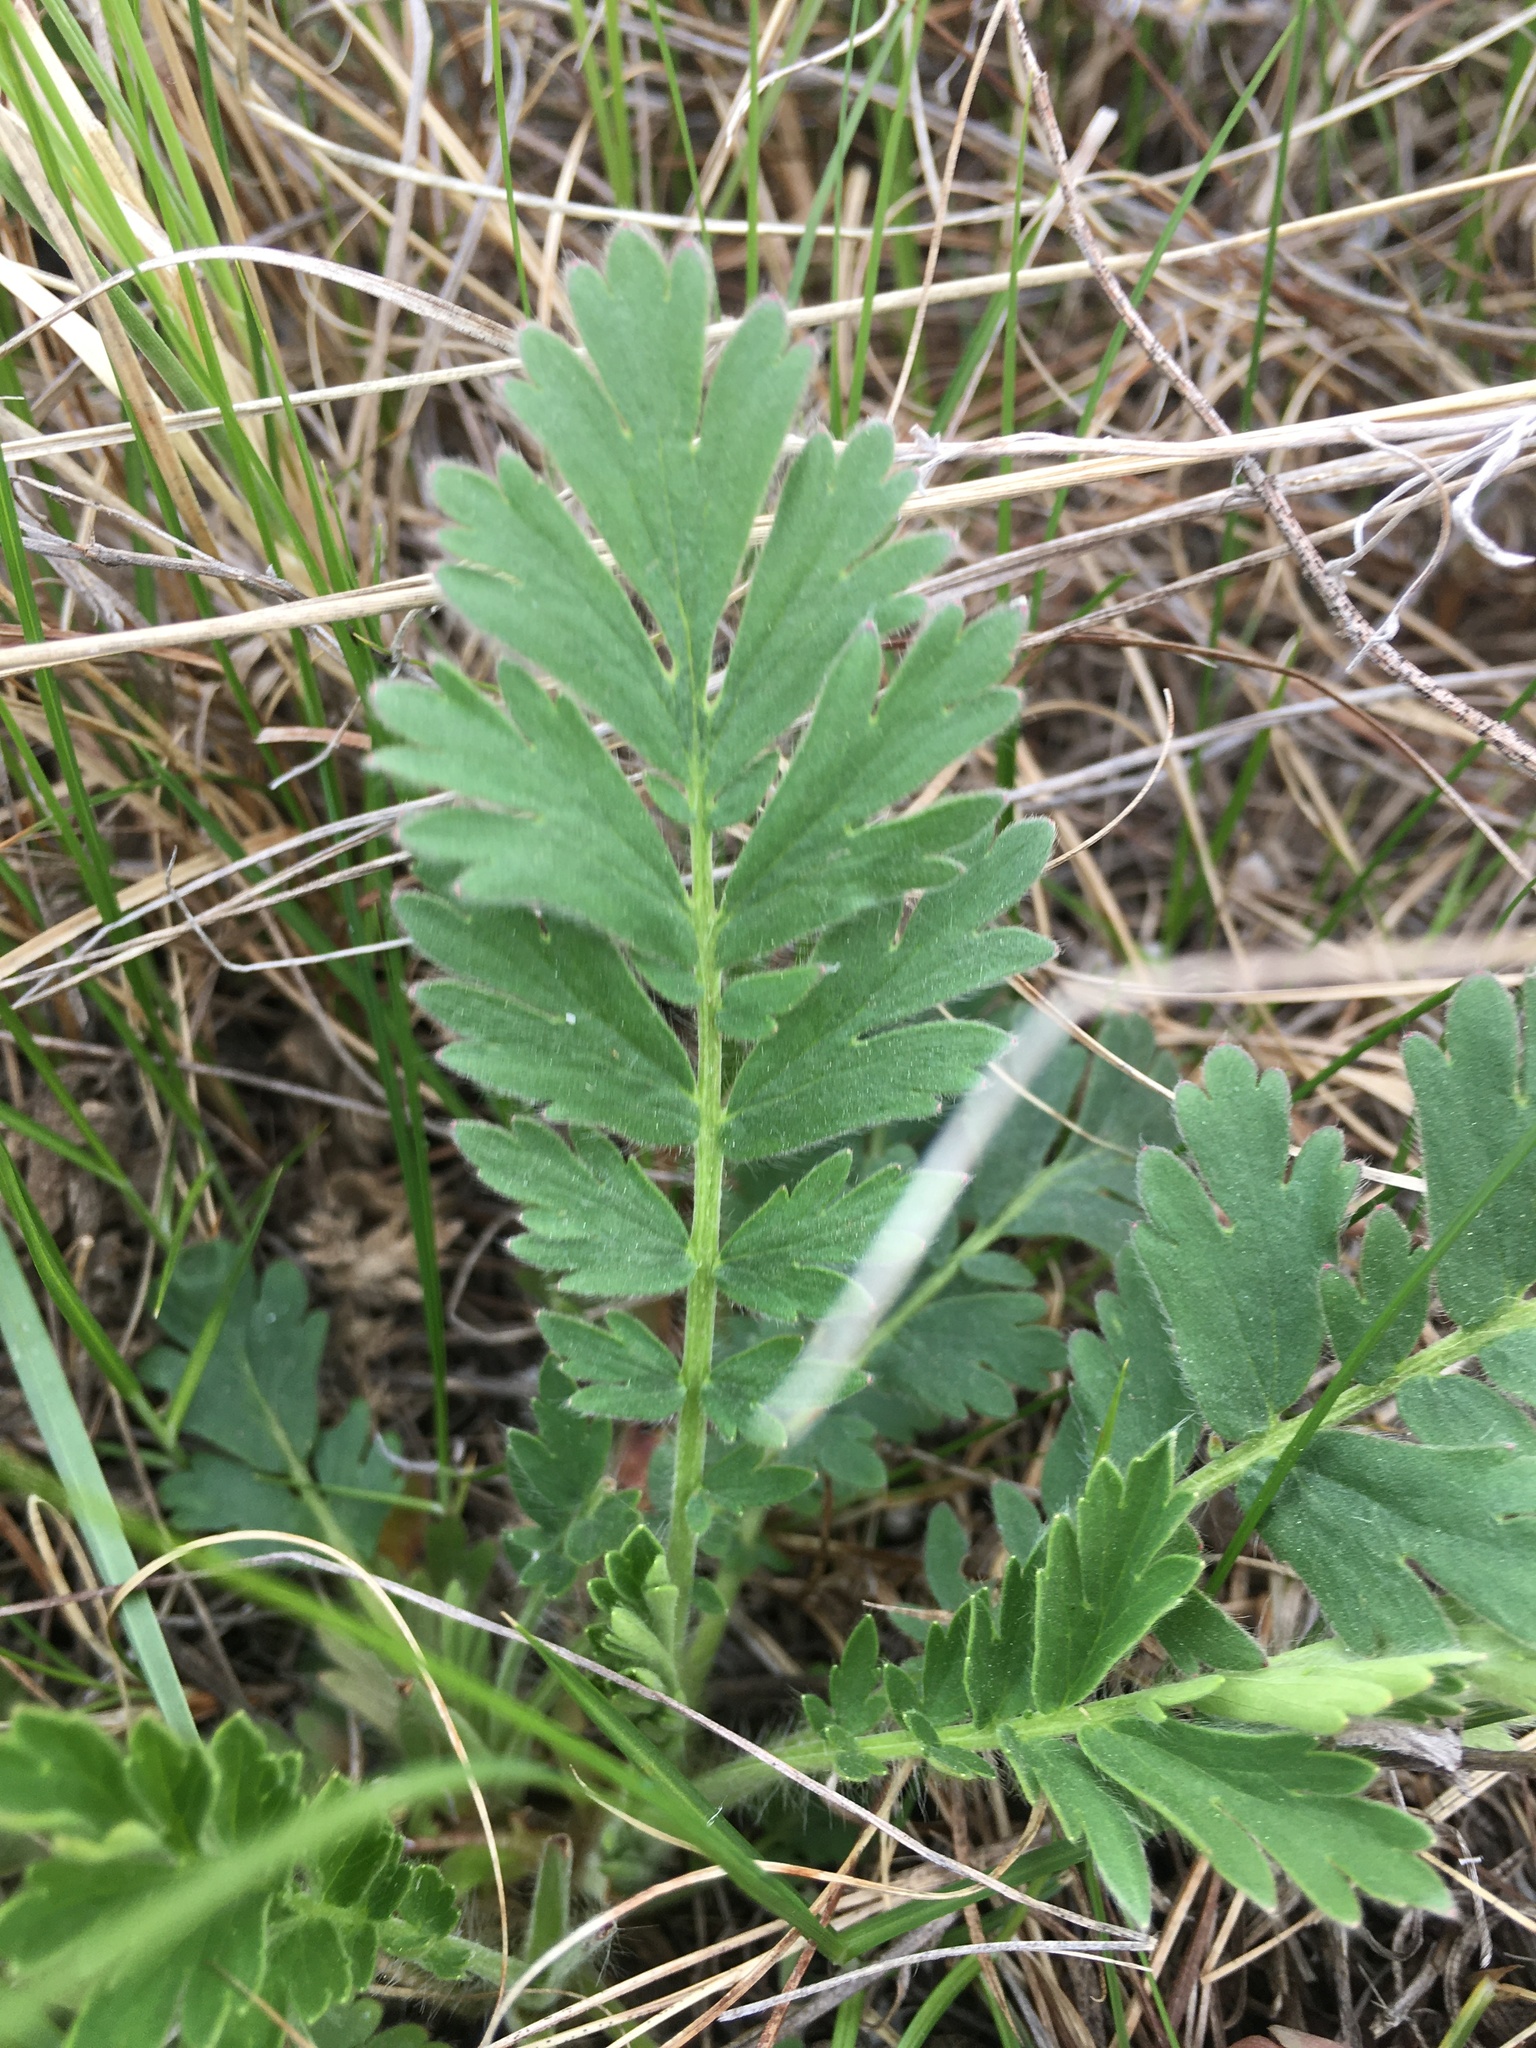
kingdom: Plantae
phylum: Tracheophyta
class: Magnoliopsida
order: Rosales
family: Rosaceae
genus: Geum
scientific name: Geum triflorum
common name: Old man's whiskers
